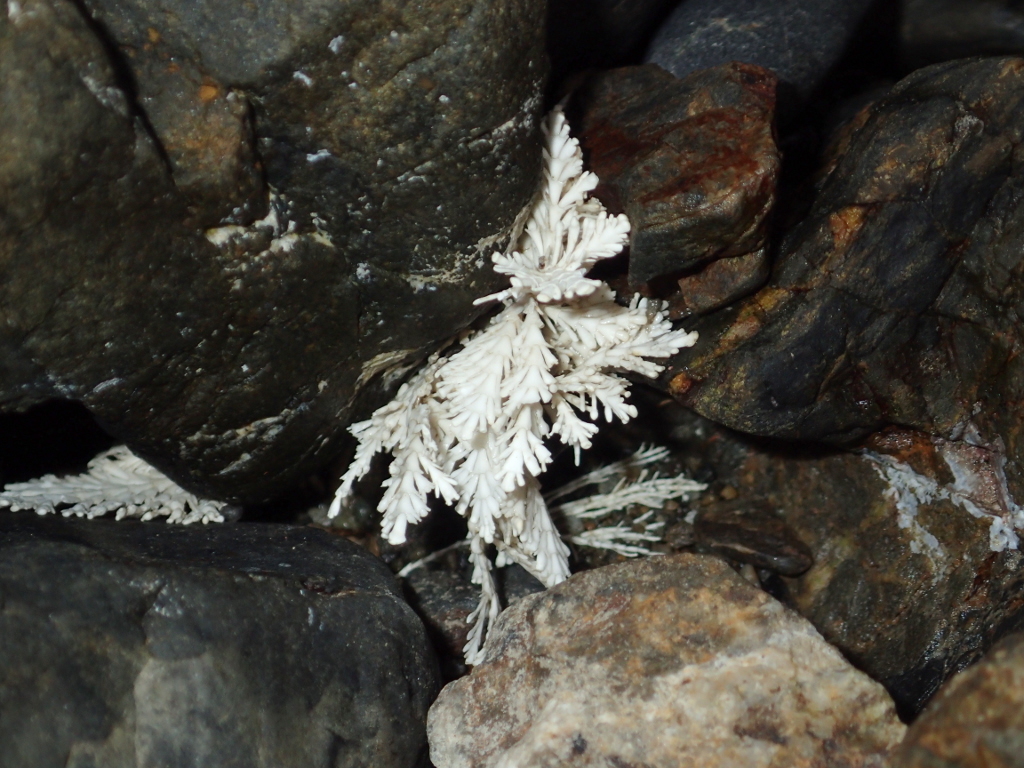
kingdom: Plantae
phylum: Rhodophyta
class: Florideophyceae
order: Corallinales
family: Corallinaceae
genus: Corallina
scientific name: Corallina officinalis
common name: Coral weed
